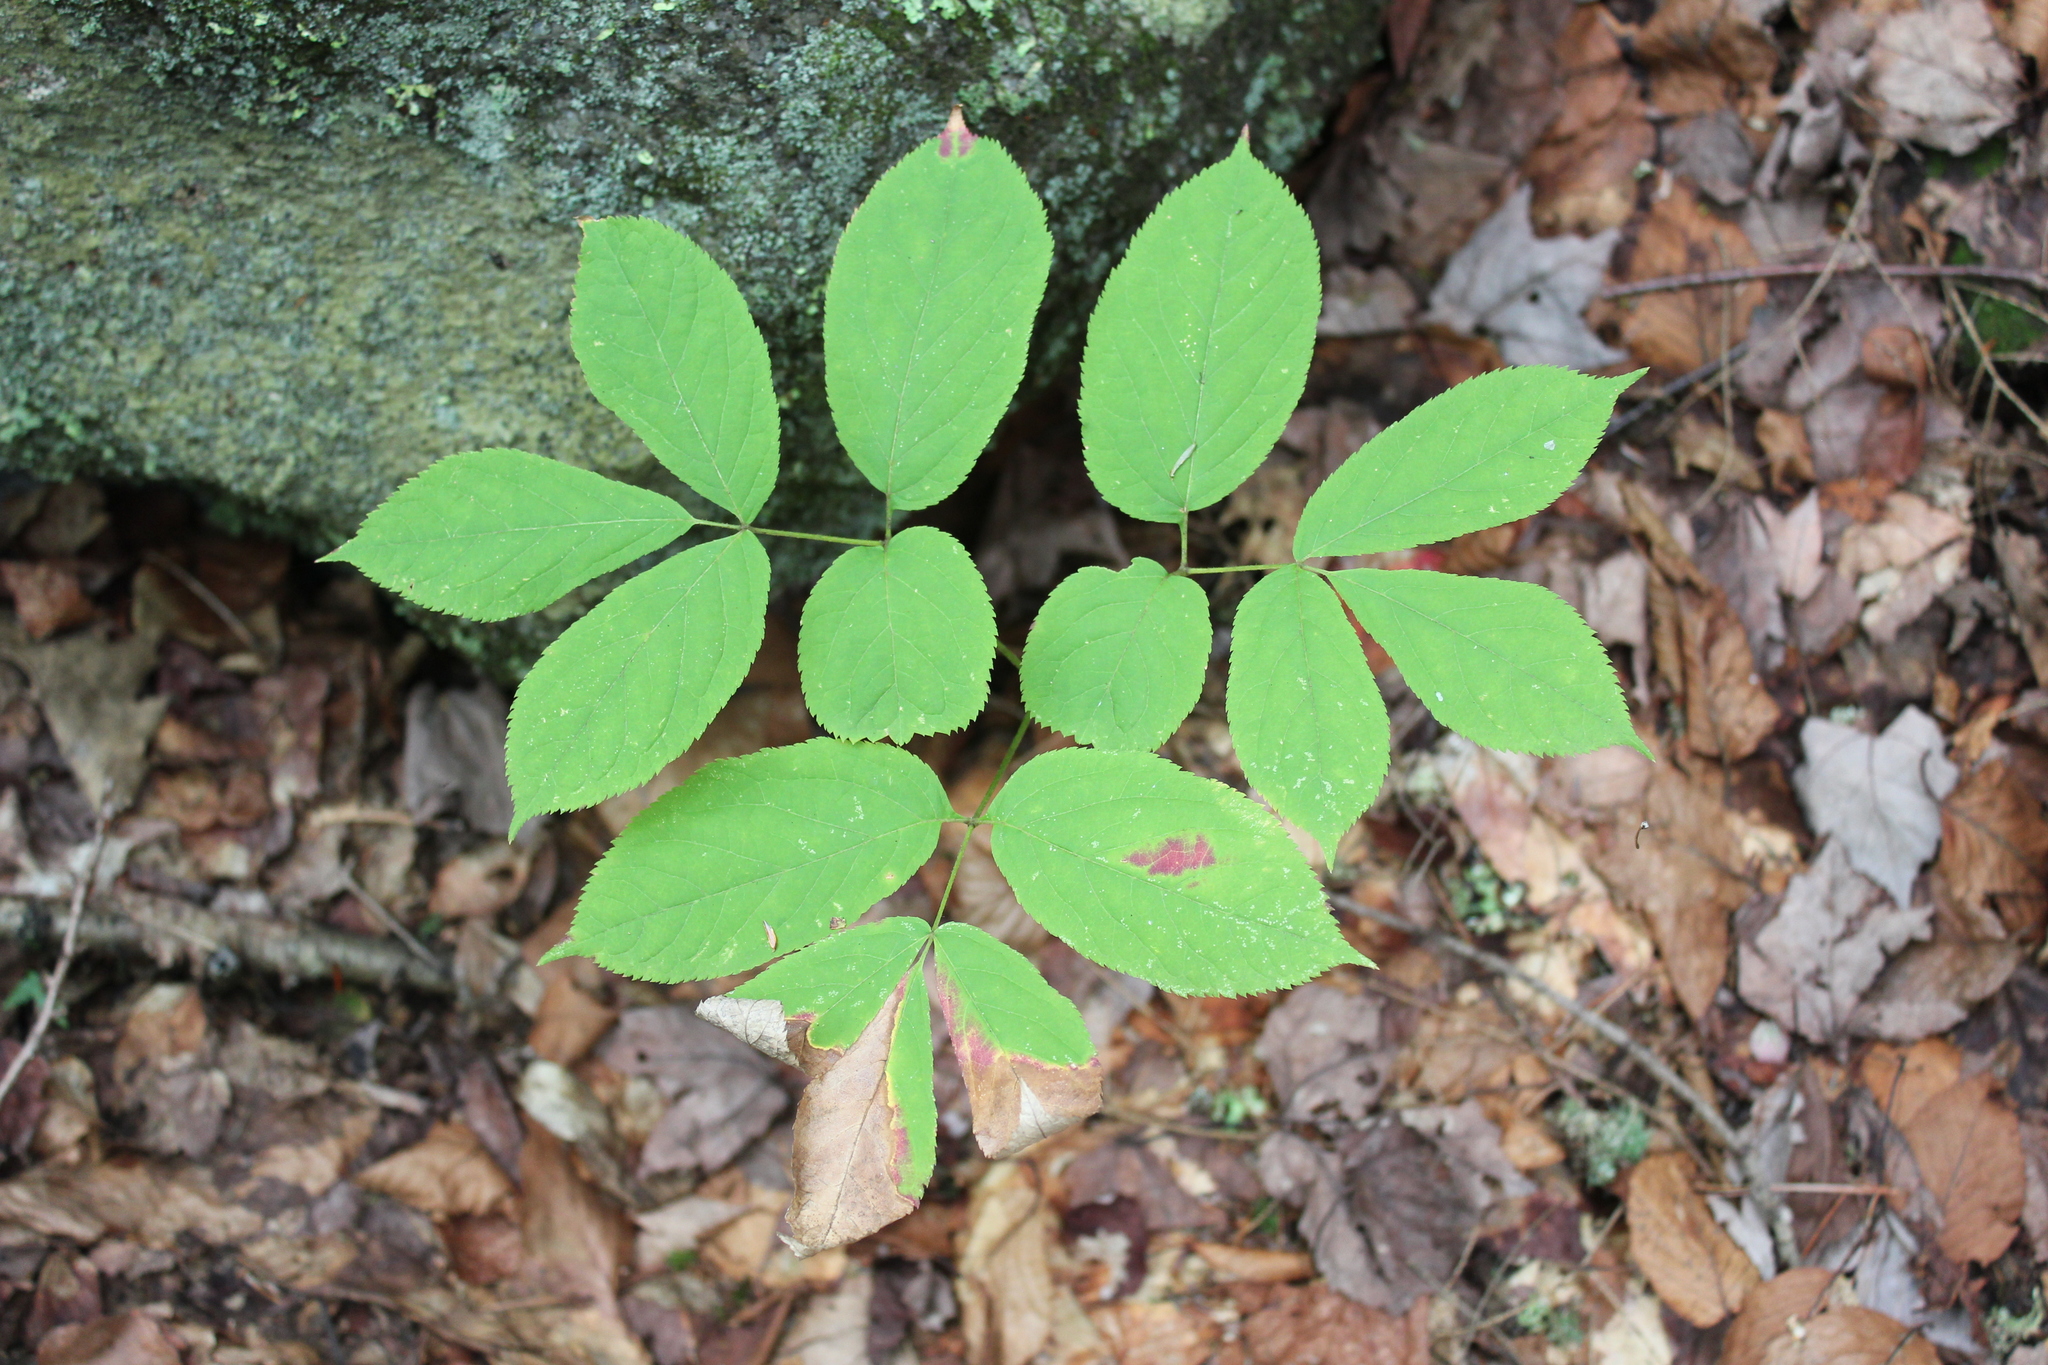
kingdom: Plantae
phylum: Tracheophyta
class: Magnoliopsida
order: Apiales
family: Araliaceae
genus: Aralia
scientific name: Aralia nudicaulis
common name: Wild sarsaparilla
